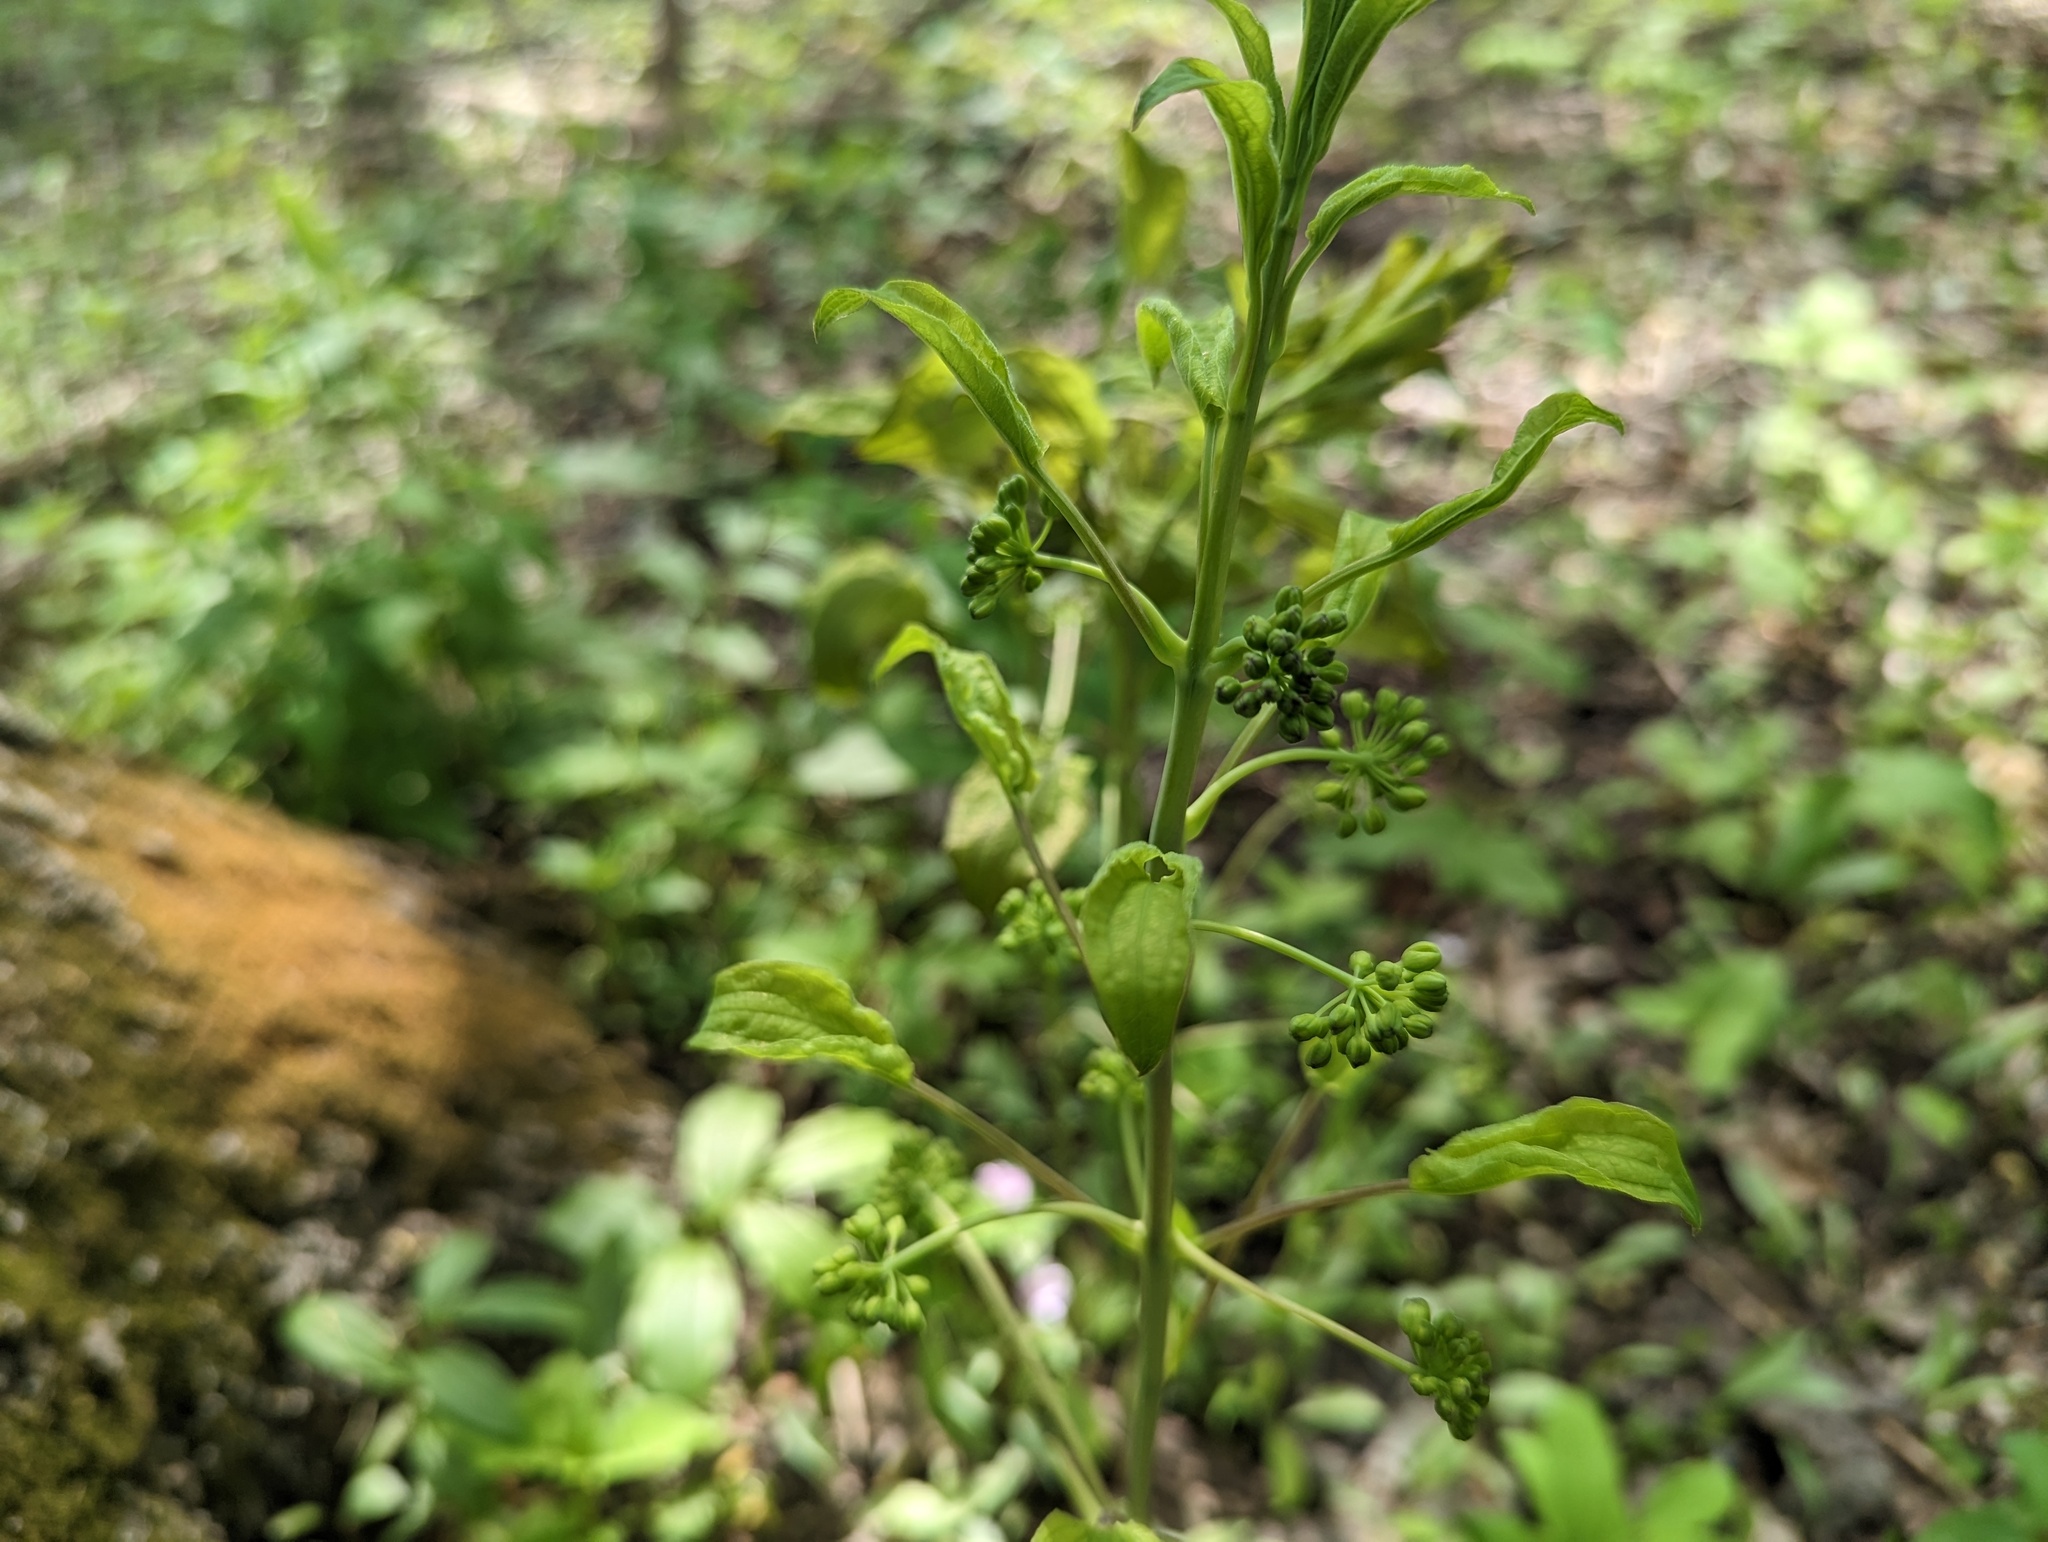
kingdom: Plantae
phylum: Tracheophyta
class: Liliopsida
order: Liliales
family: Smilacaceae
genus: Smilax
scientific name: Smilax illinoensis
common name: Illinois carrionflower
